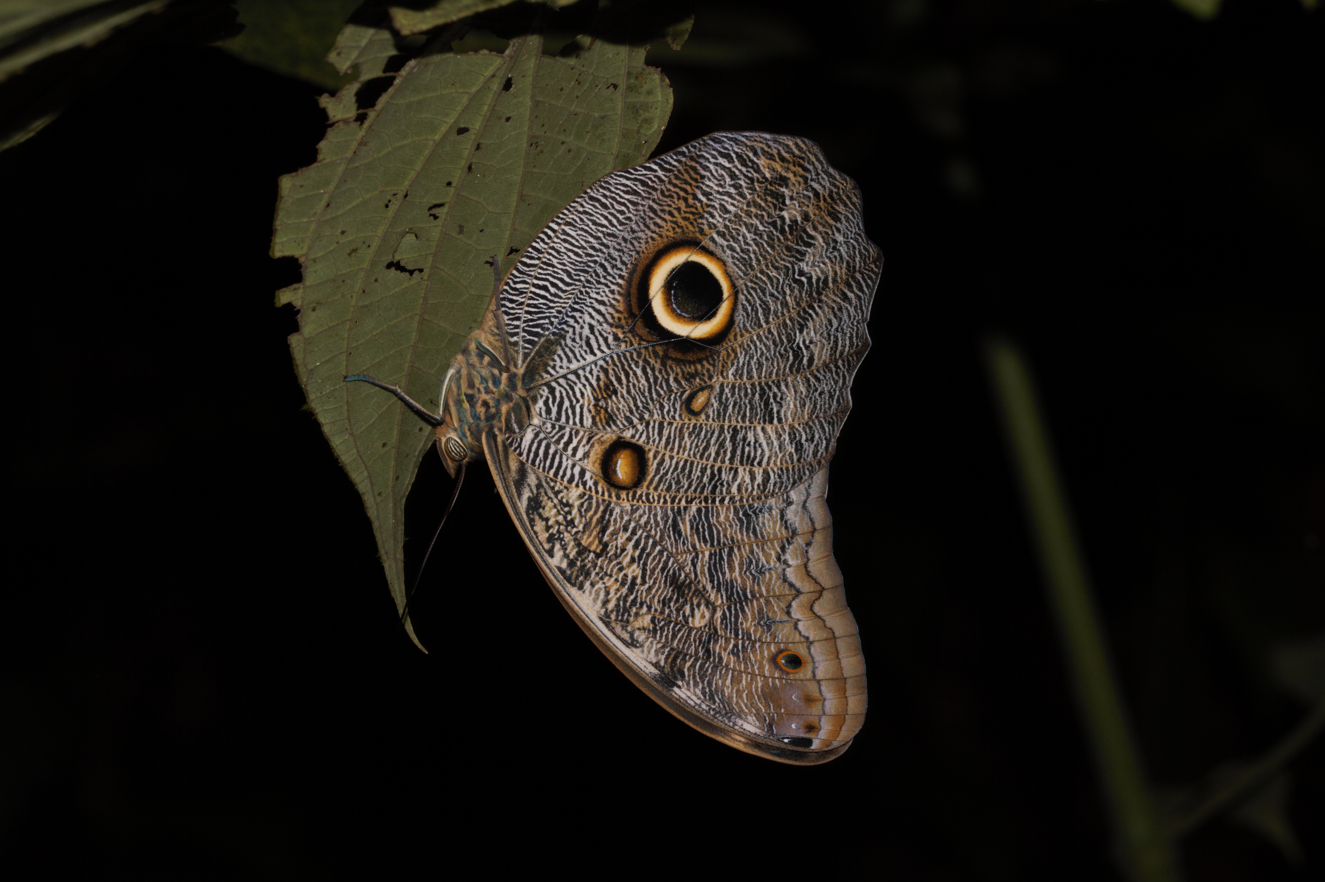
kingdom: Animalia
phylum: Arthropoda
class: Insecta
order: Lepidoptera
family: Nymphalidae
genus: Caligo
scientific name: Caligo eurilochus
